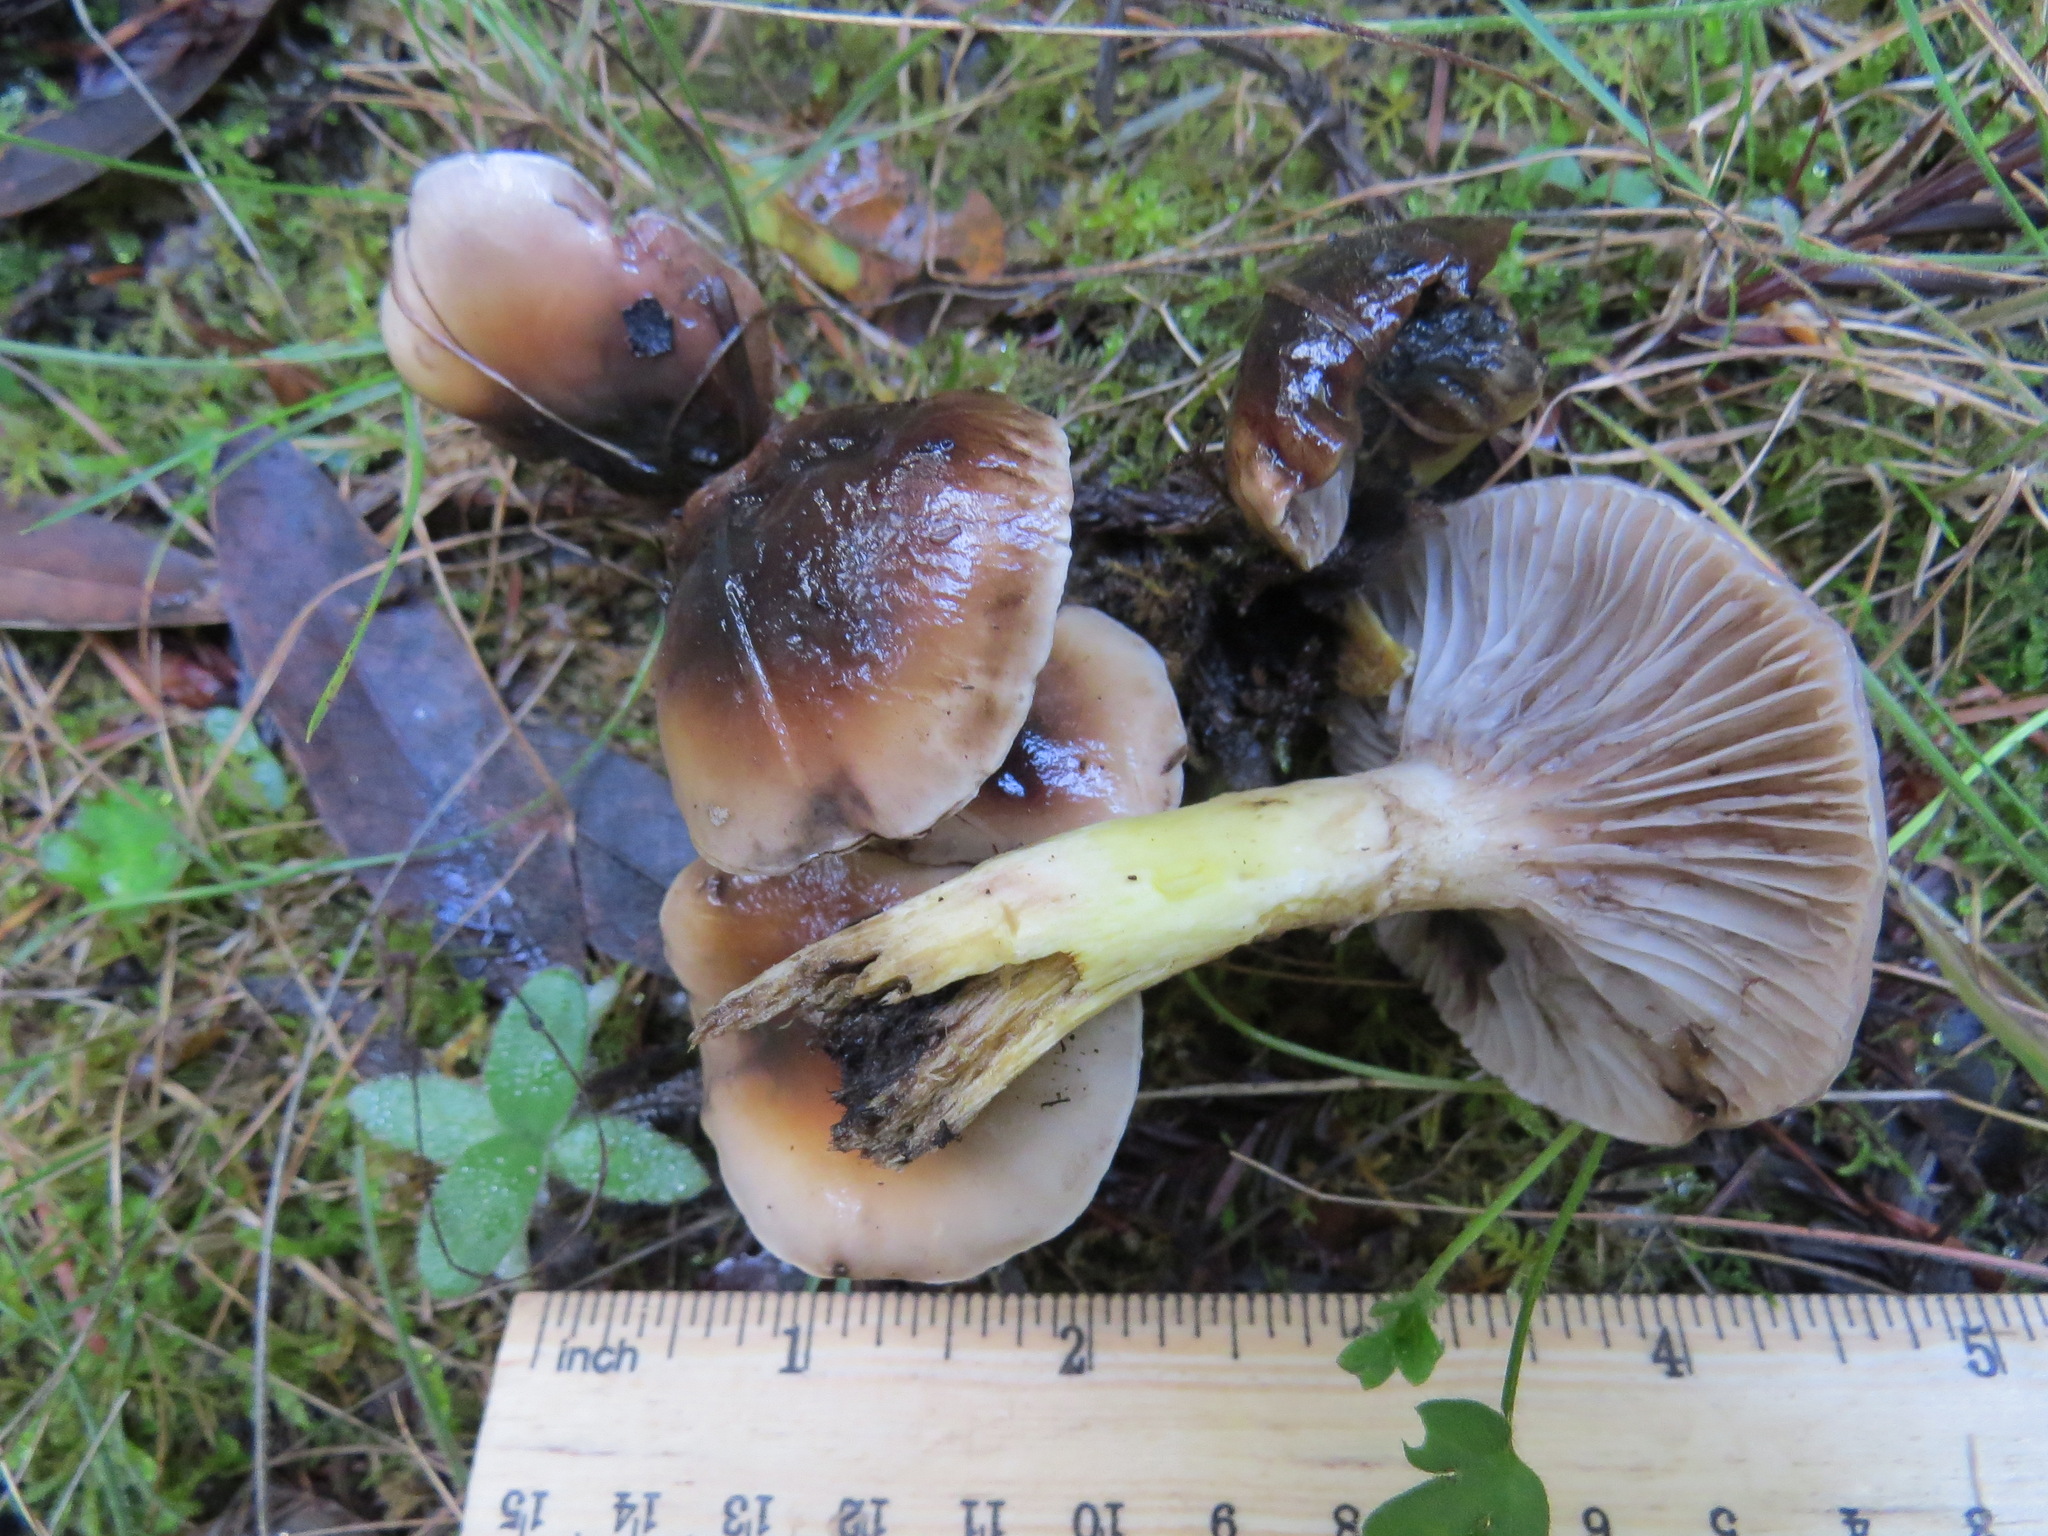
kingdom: Fungi
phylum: Basidiomycota
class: Agaricomycetes
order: Boletales
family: Gomphidiaceae
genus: Gomphidius
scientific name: Gomphidius oregonensis
